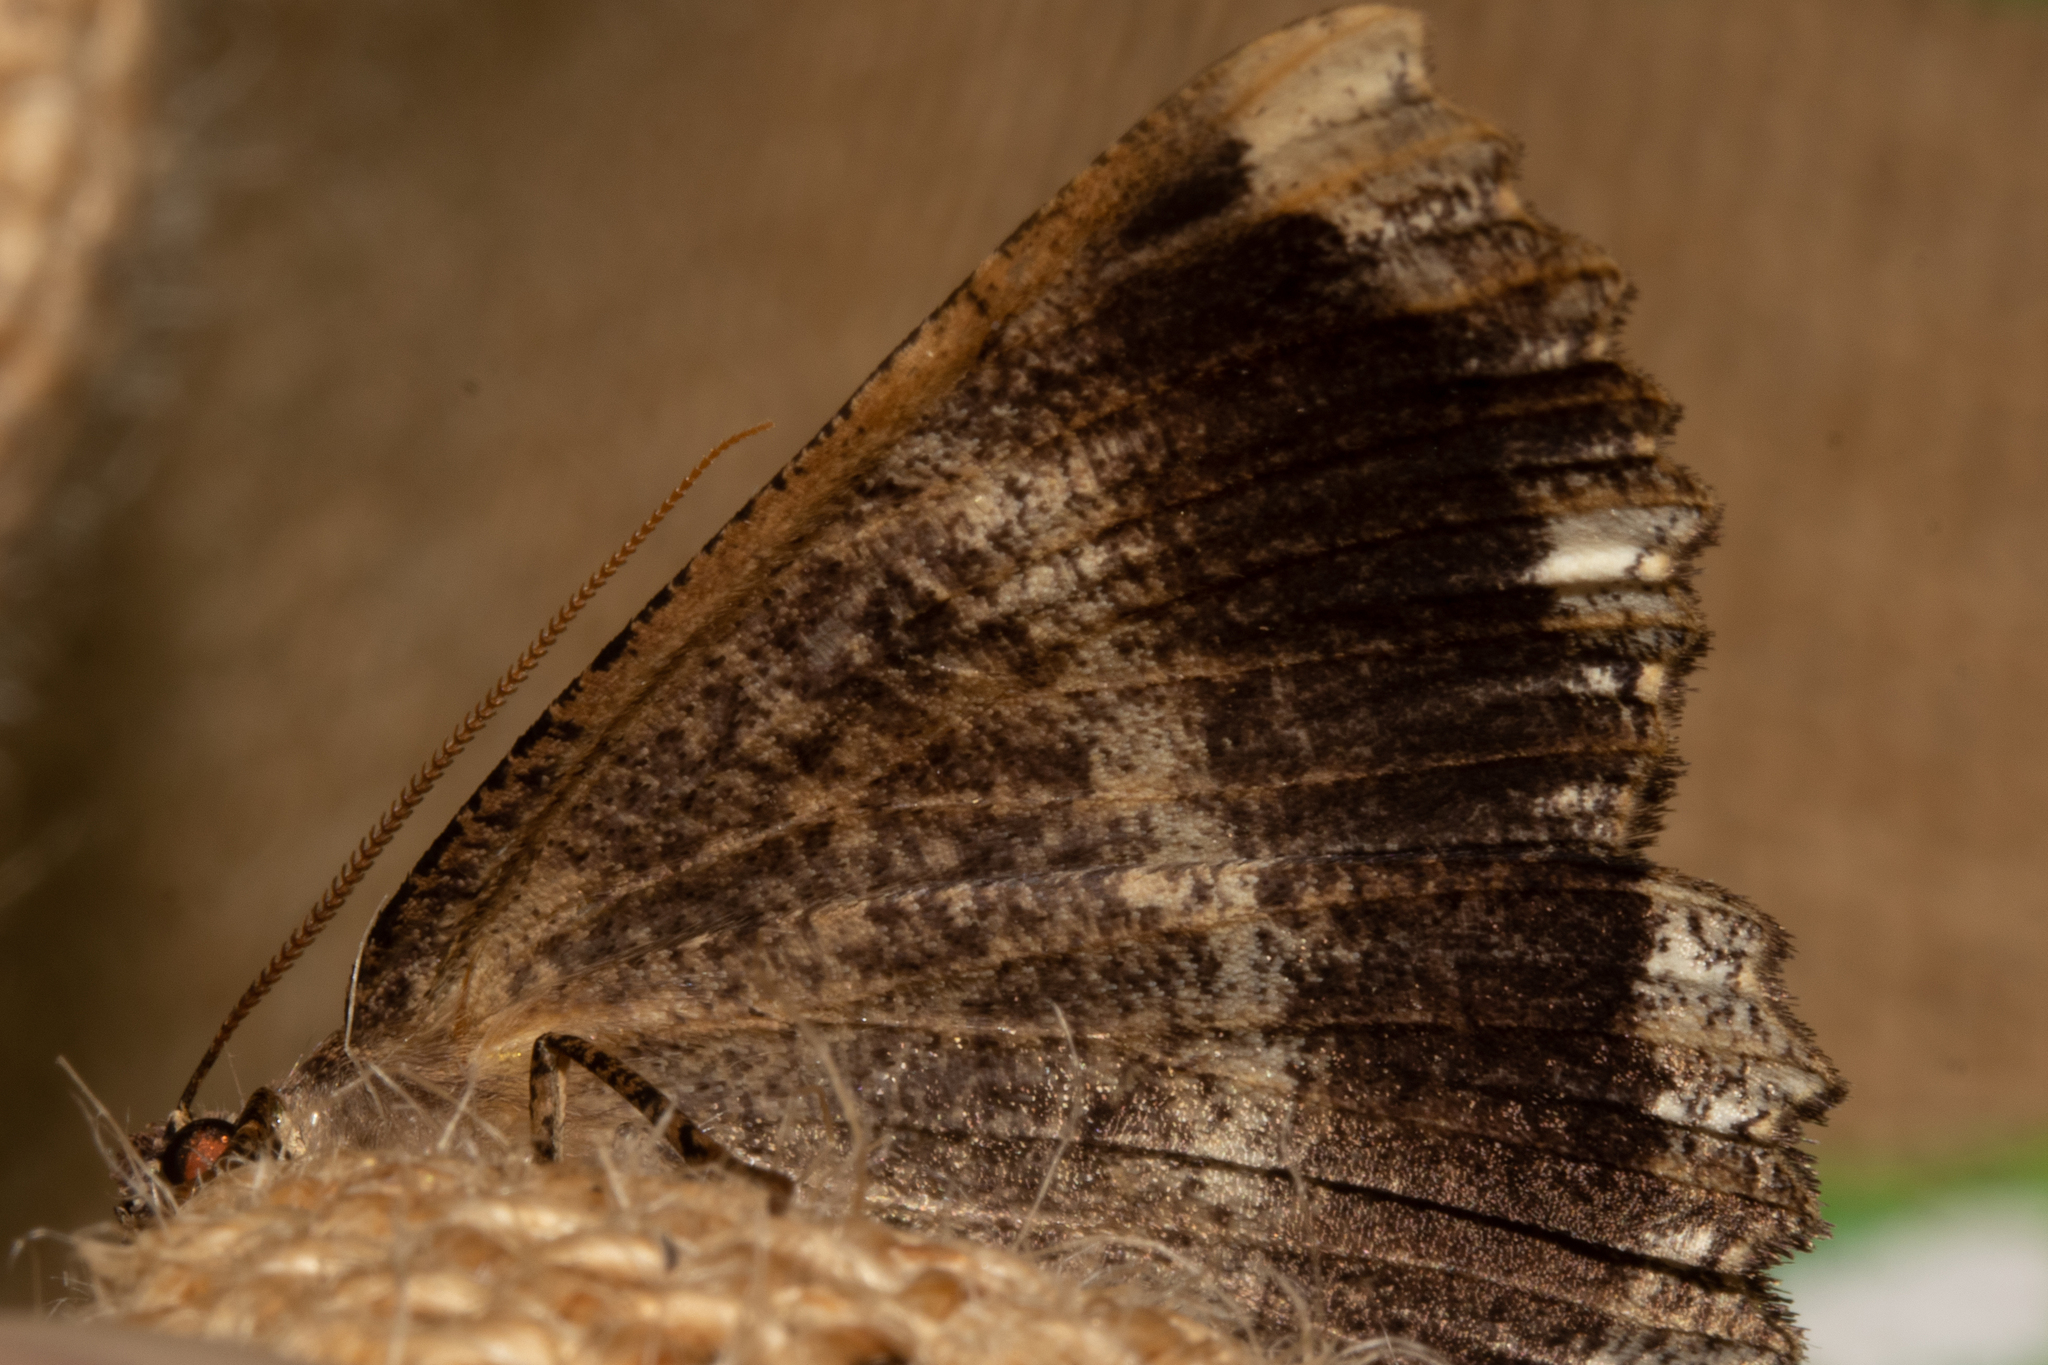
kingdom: Animalia
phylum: Arthropoda
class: Insecta
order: Lepidoptera
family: Geometridae
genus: Gellonia
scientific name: Gellonia dejectaria
